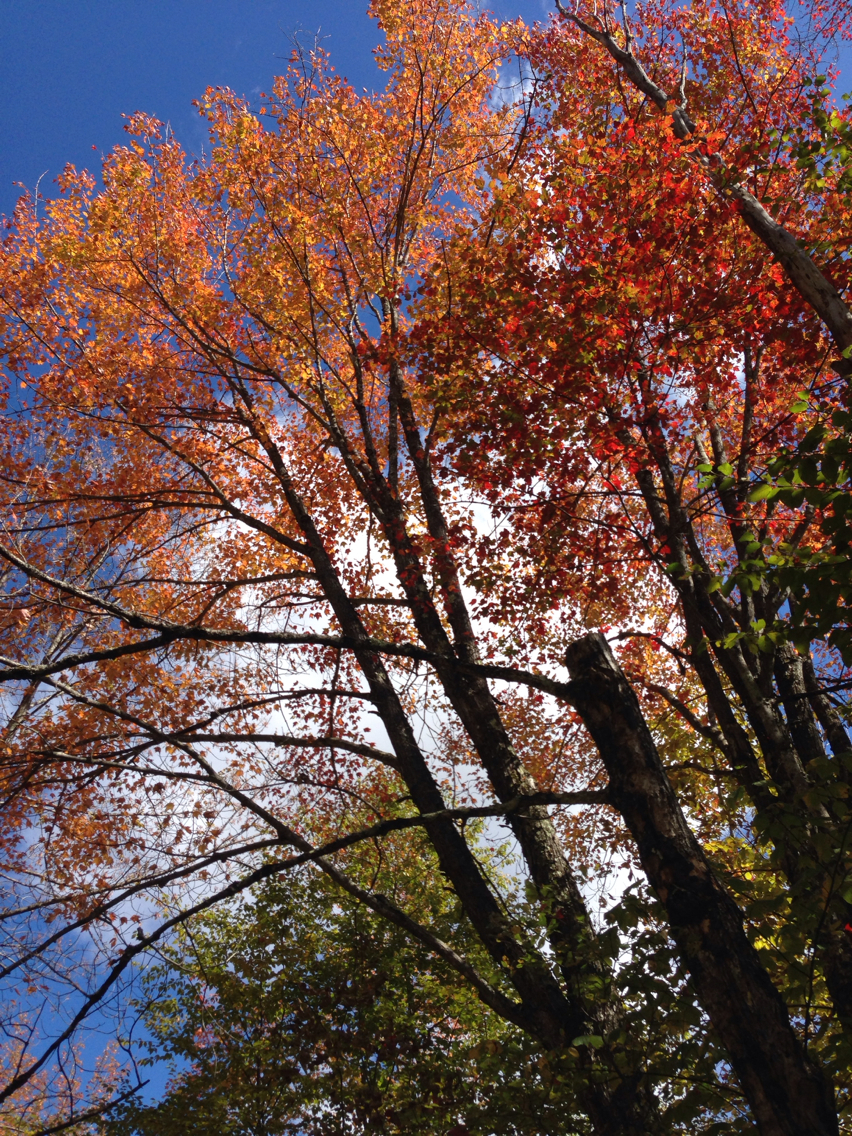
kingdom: Plantae
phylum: Tracheophyta
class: Magnoliopsida
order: Sapindales
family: Sapindaceae
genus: Acer
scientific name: Acer rubrum
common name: Red maple
